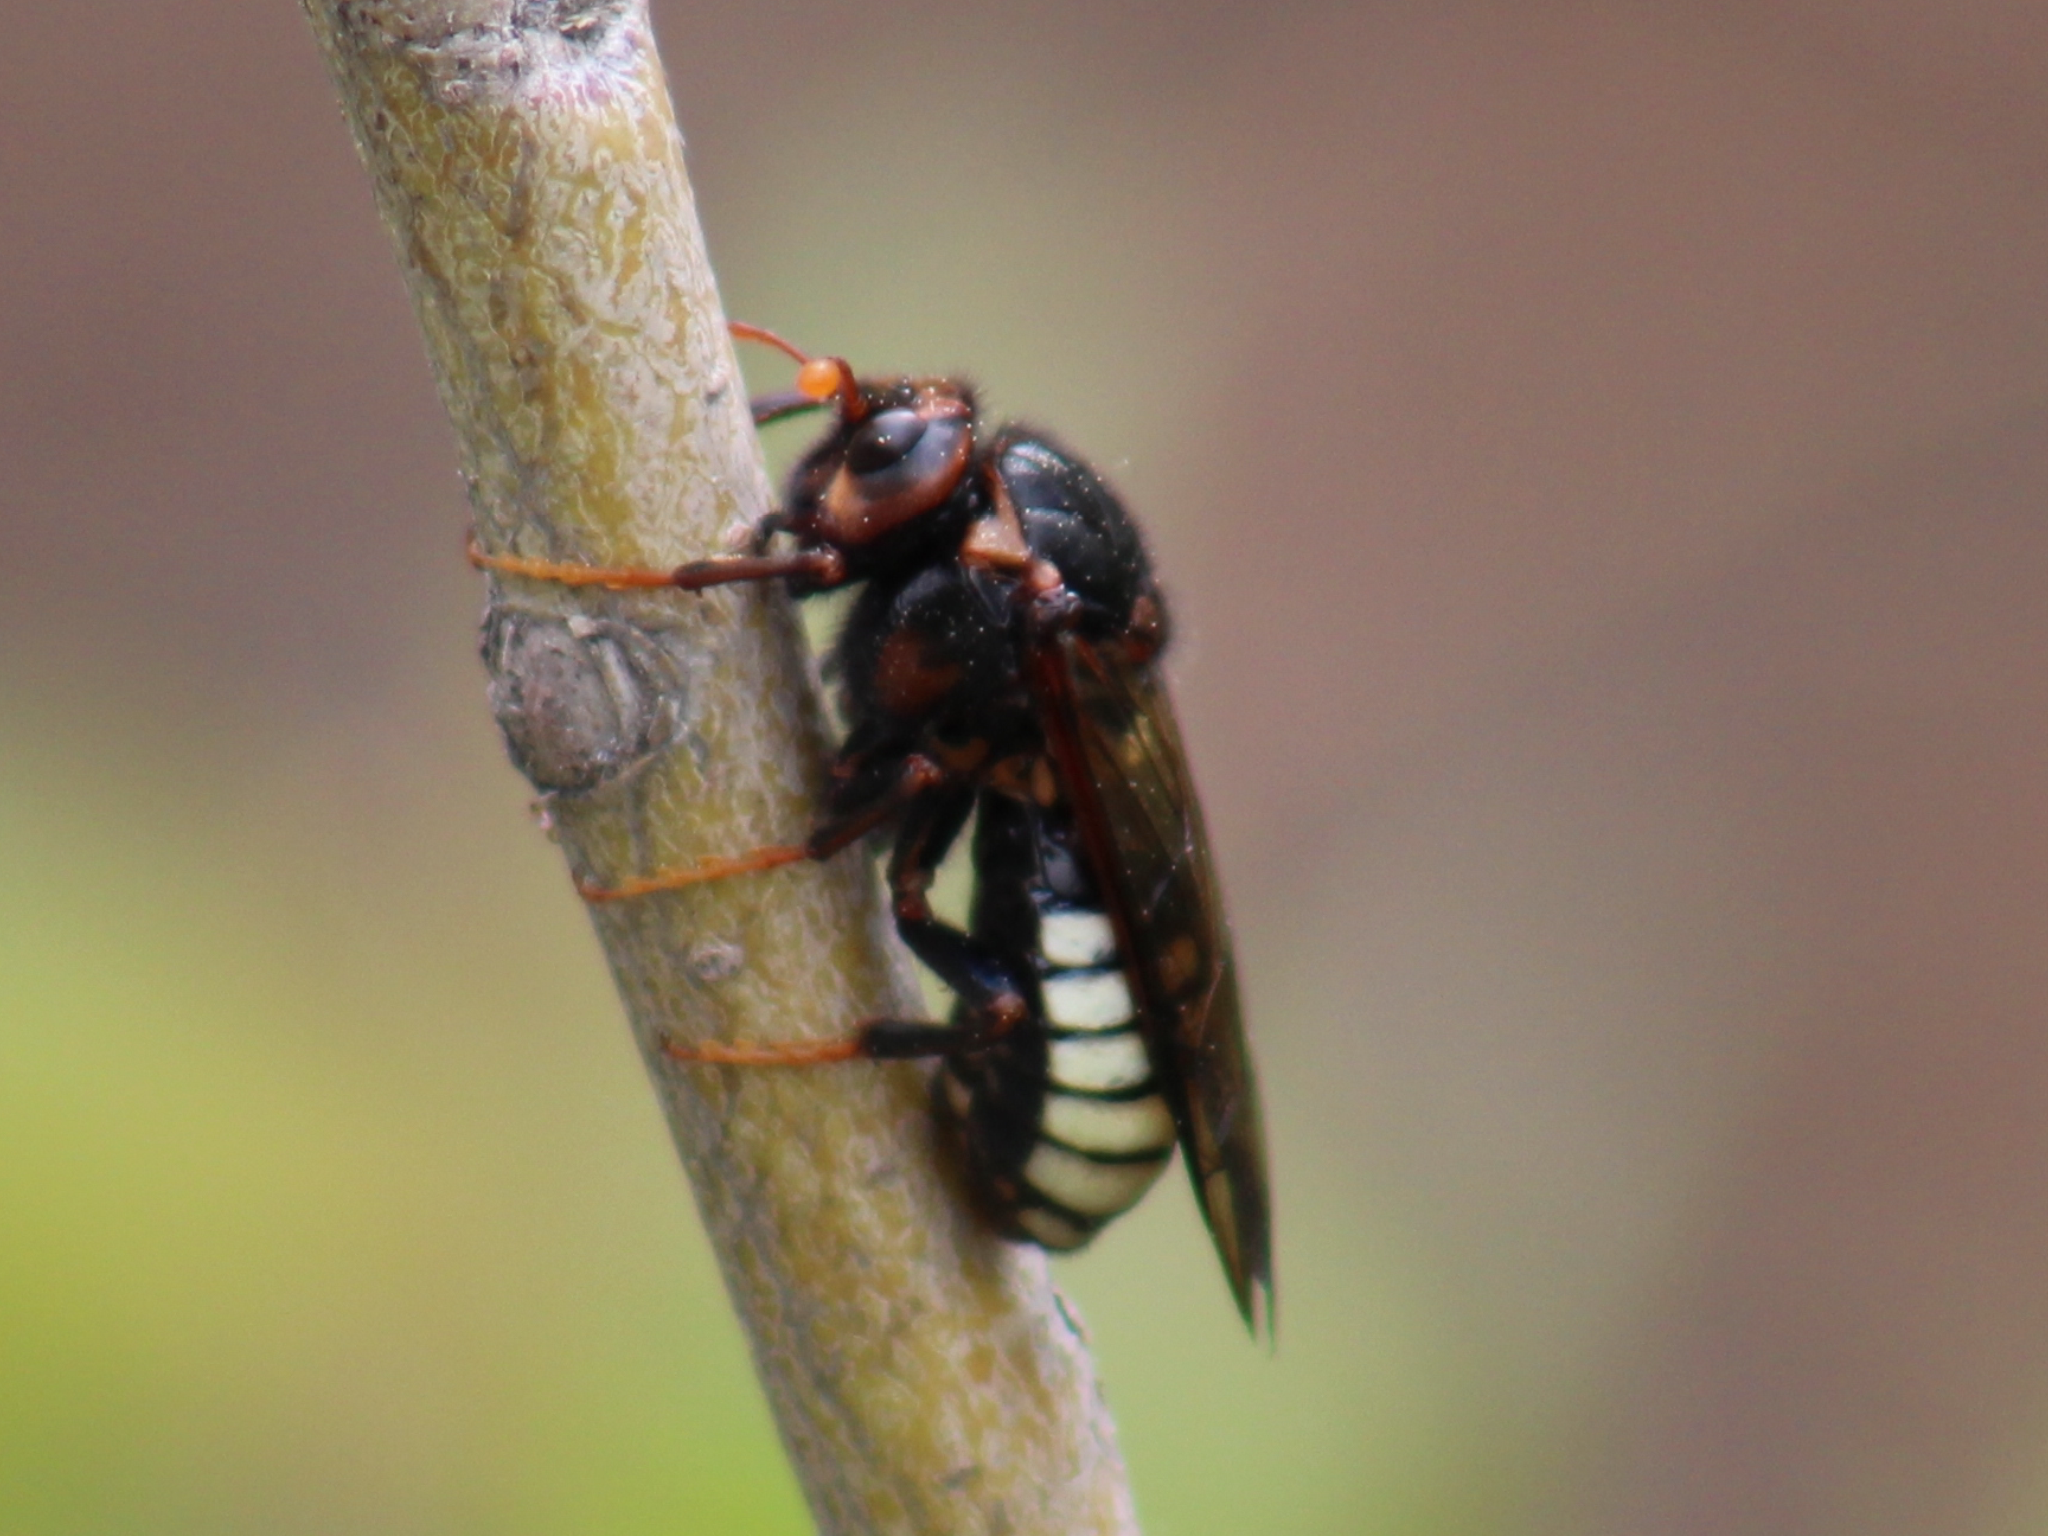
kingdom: Animalia
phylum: Arthropoda
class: Insecta
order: Hymenoptera
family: Cimbicidae
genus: Cimbex
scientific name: Cimbex americana
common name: Elm sawfly
